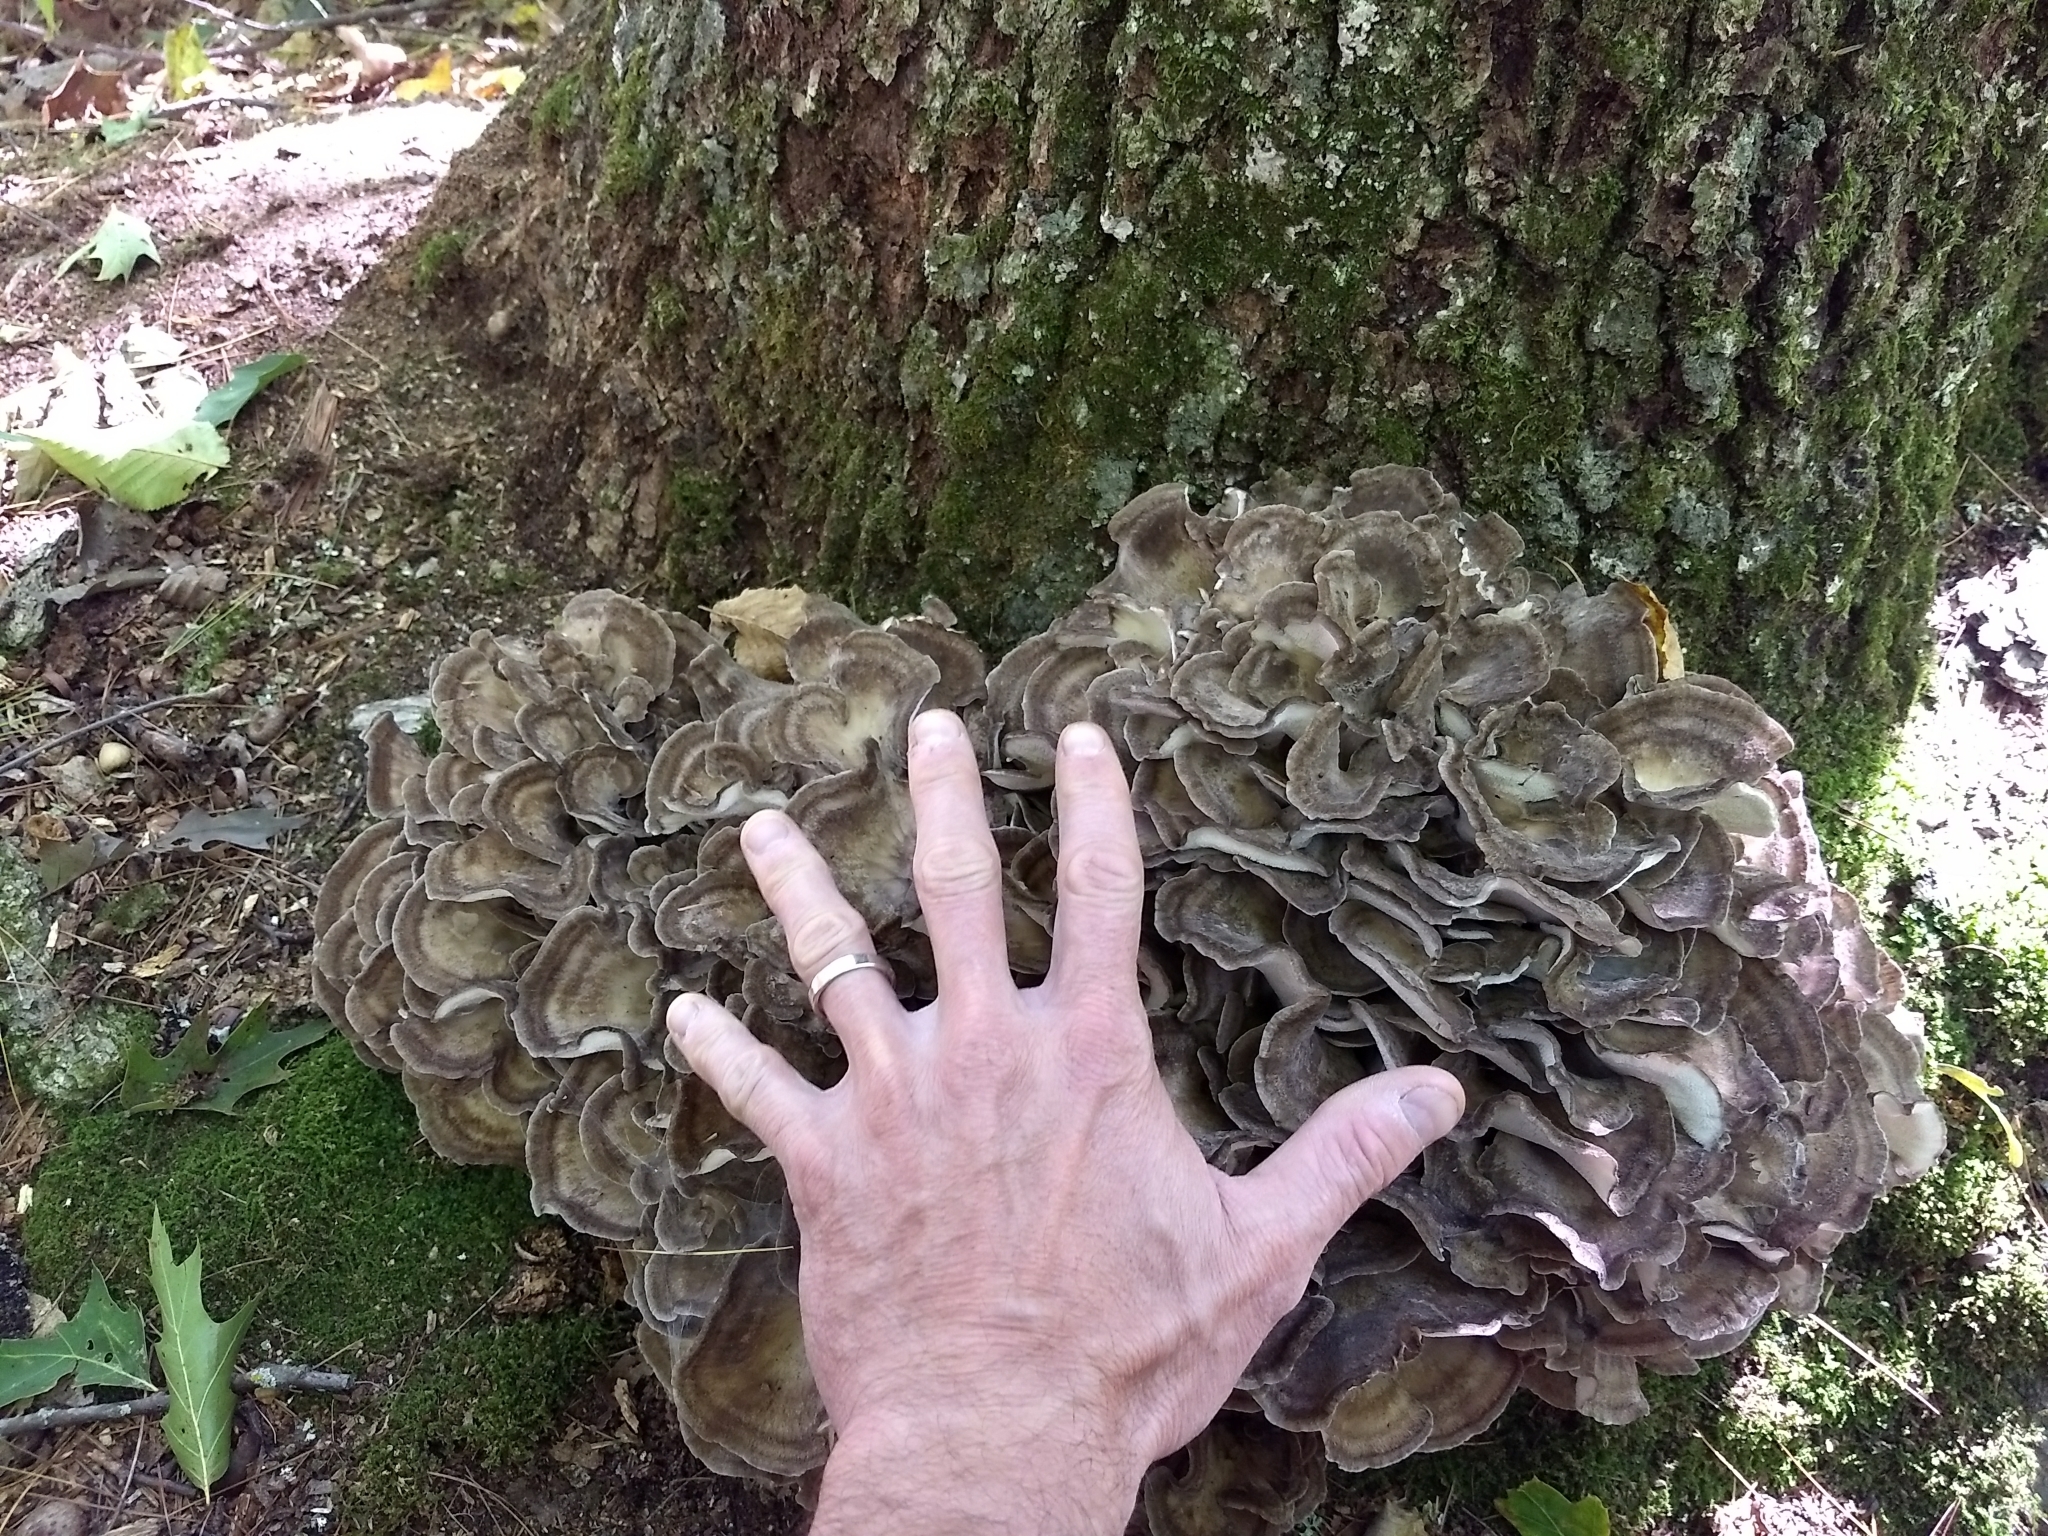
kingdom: Fungi
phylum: Basidiomycota
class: Agaricomycetes
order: Polyporales
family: Grifolaceae
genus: Grifola
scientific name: Grifola frondosa
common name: Hen of the woods
